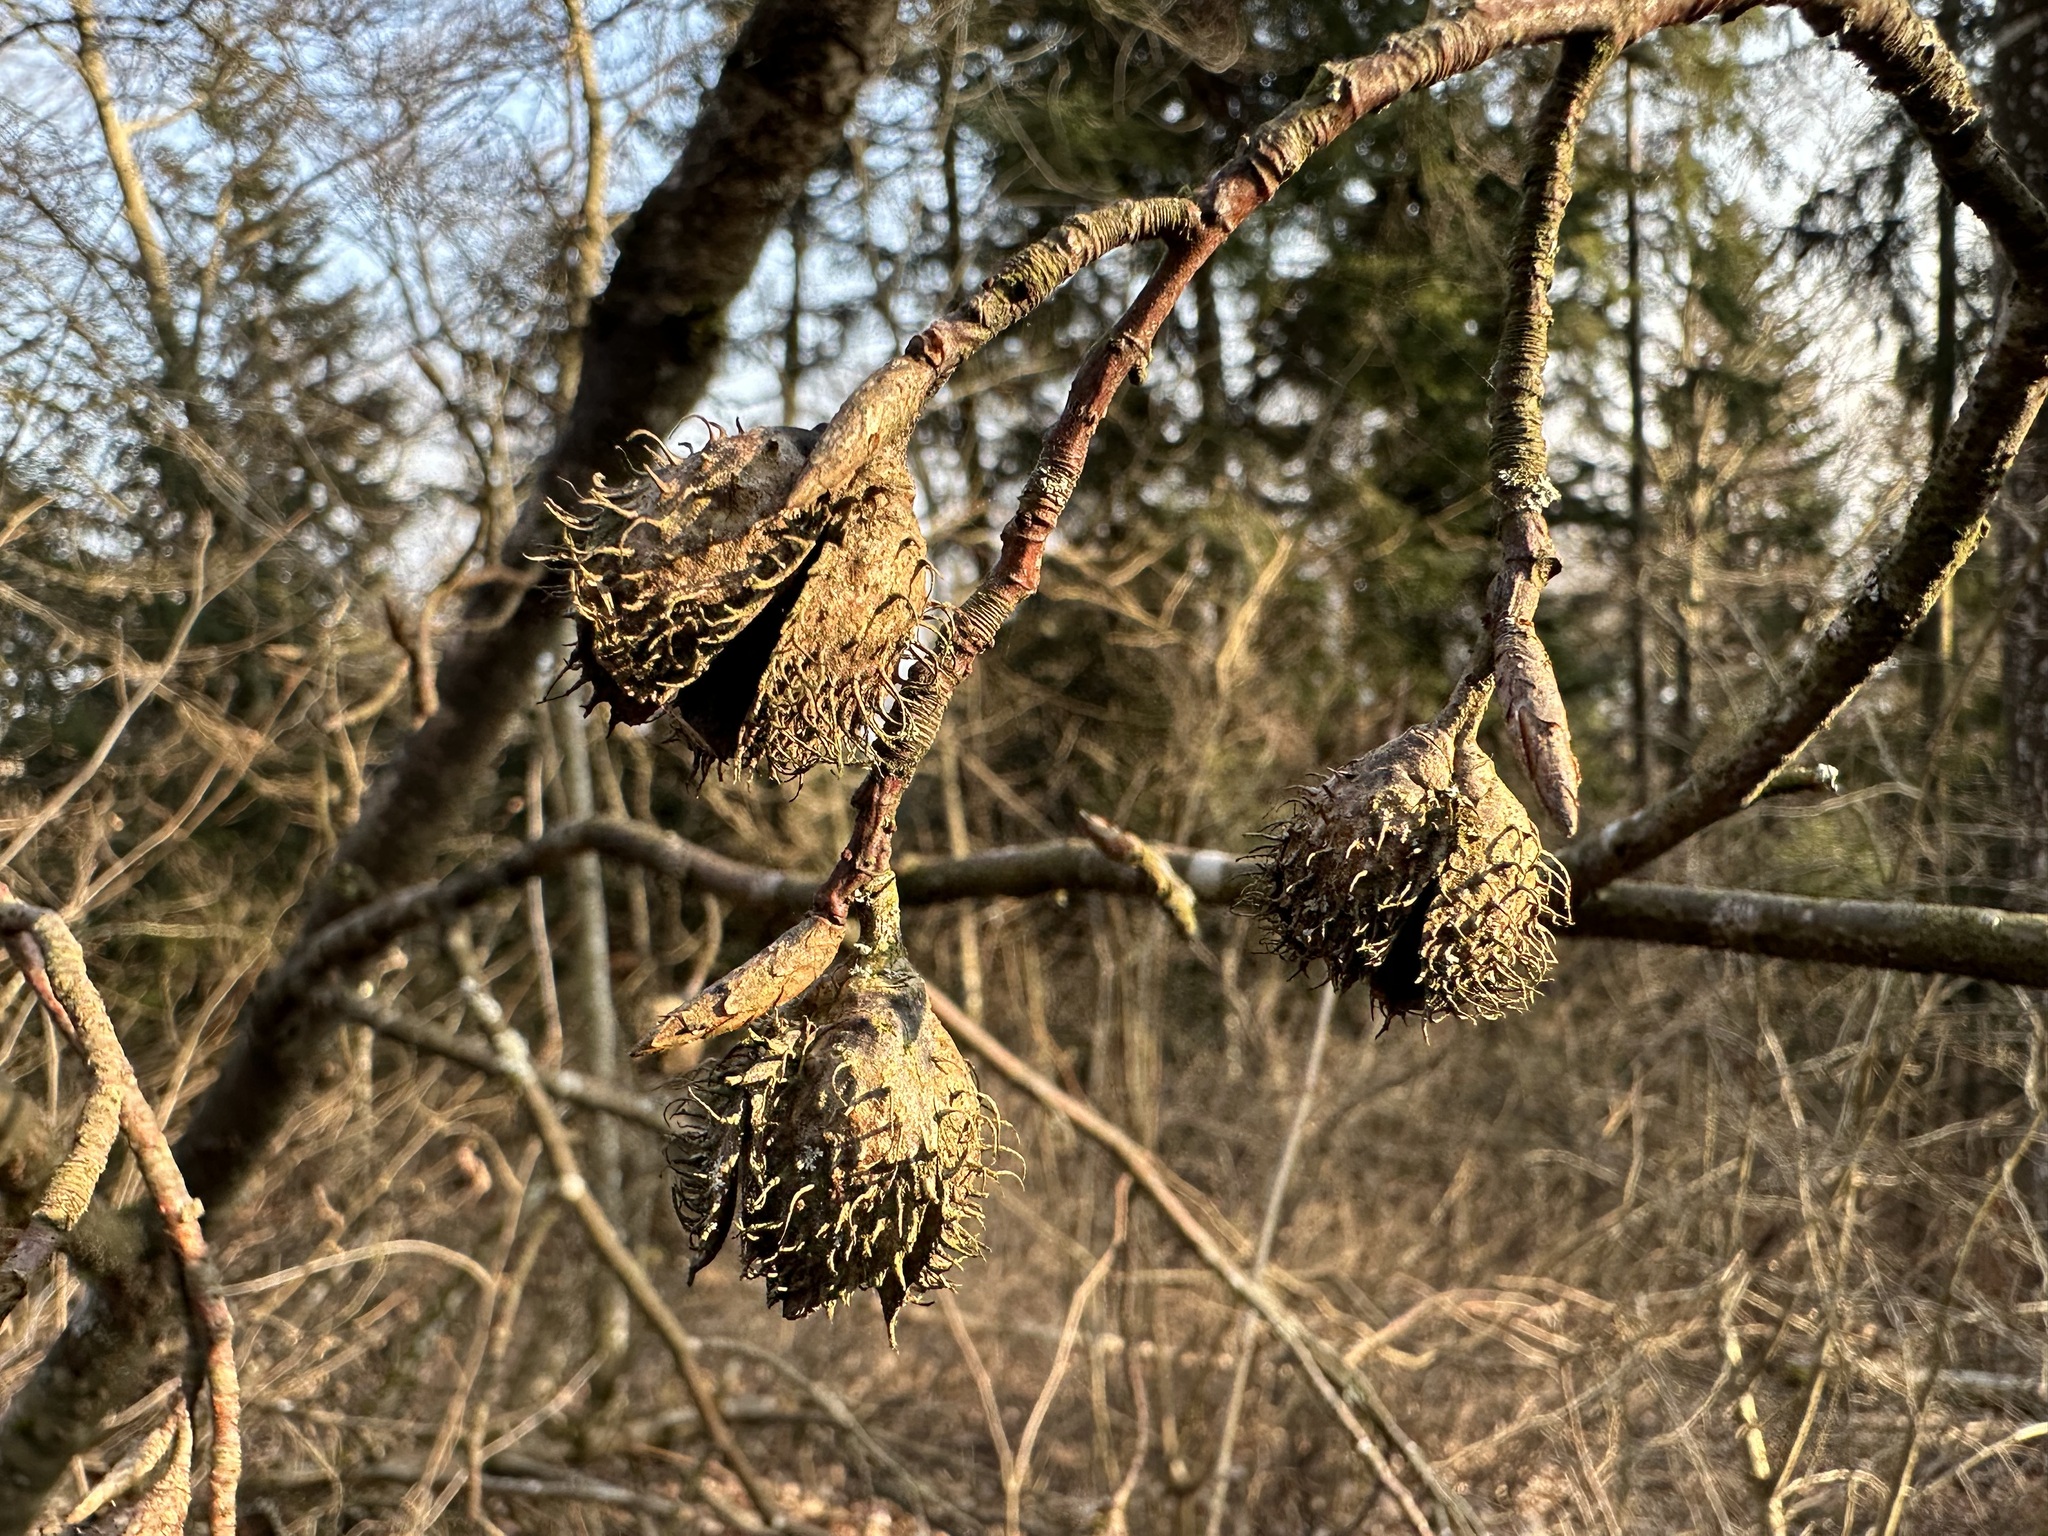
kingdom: Plantae
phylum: Tracheophyta
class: Magnoliopsida
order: Fagales
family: Fagaceae
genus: Fagus
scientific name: Fagus sylvatica
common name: Beech
